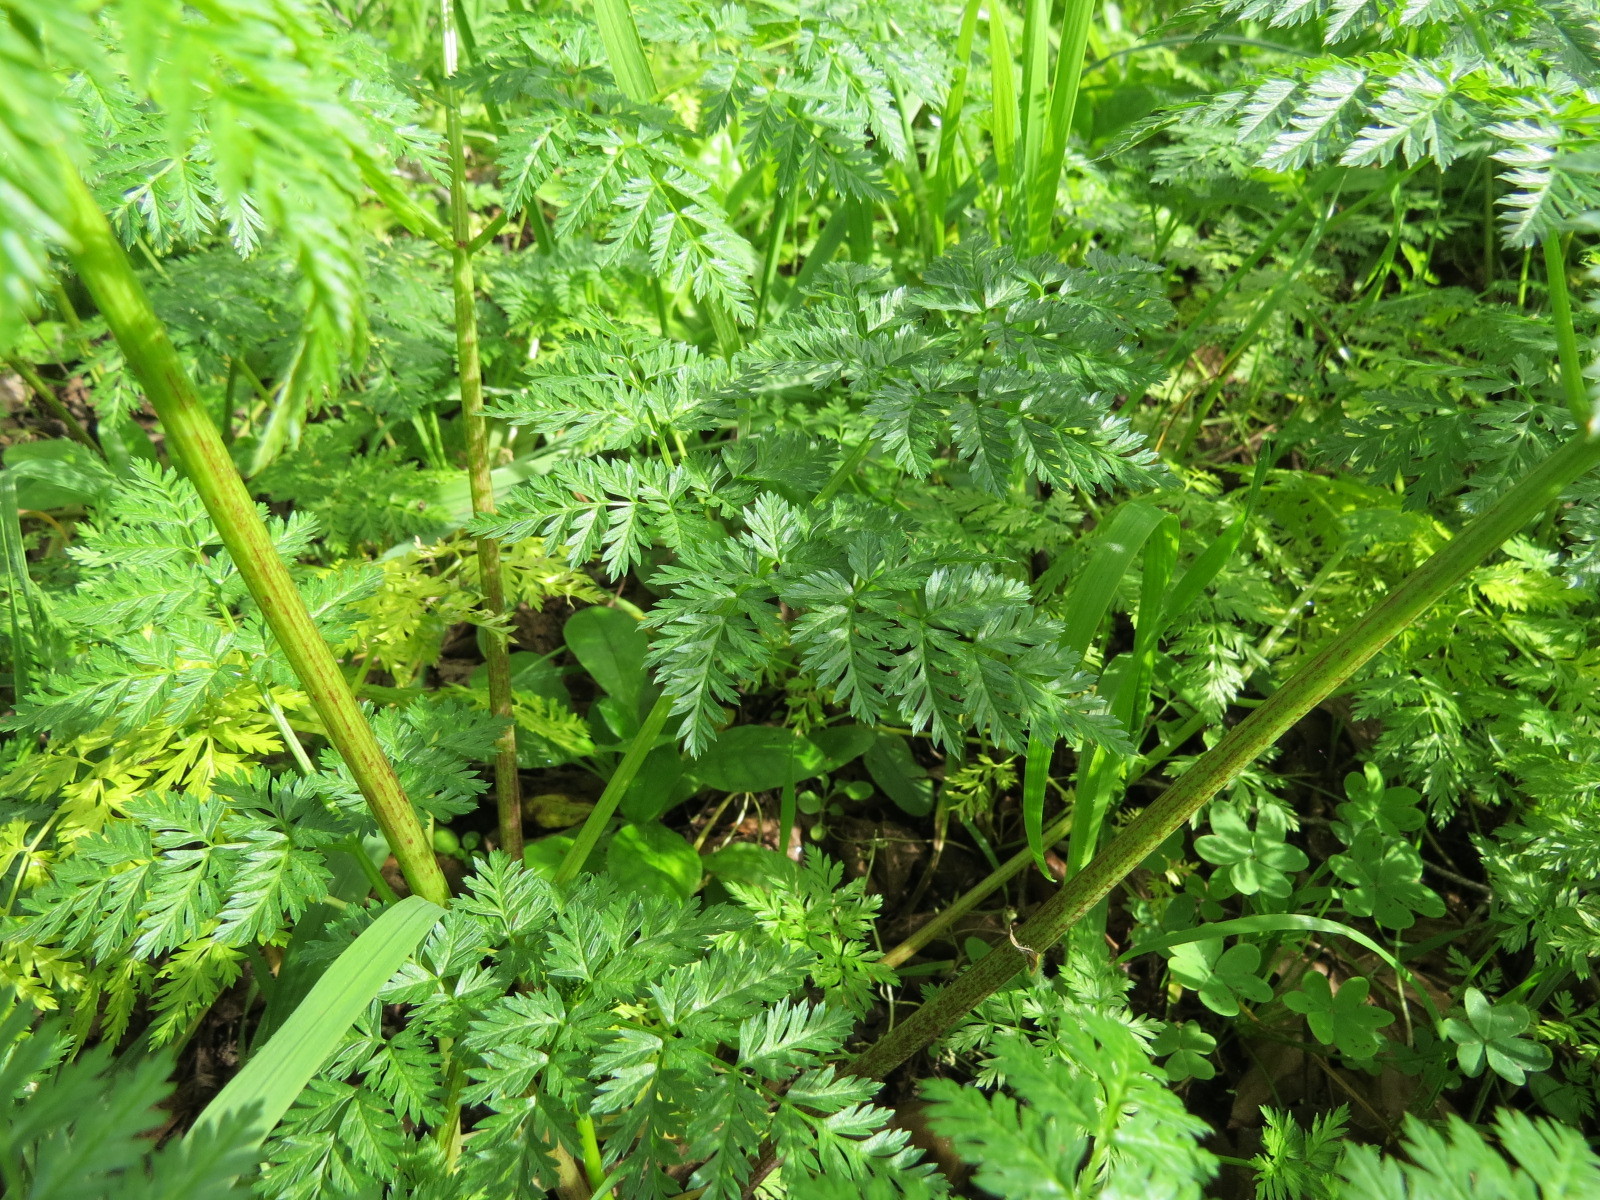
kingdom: Plantae
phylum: Tracheophyta
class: Magnoliopsida
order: Apiales
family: Apiaceae
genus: Conium
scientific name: Conium maculatum
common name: Hemlock
